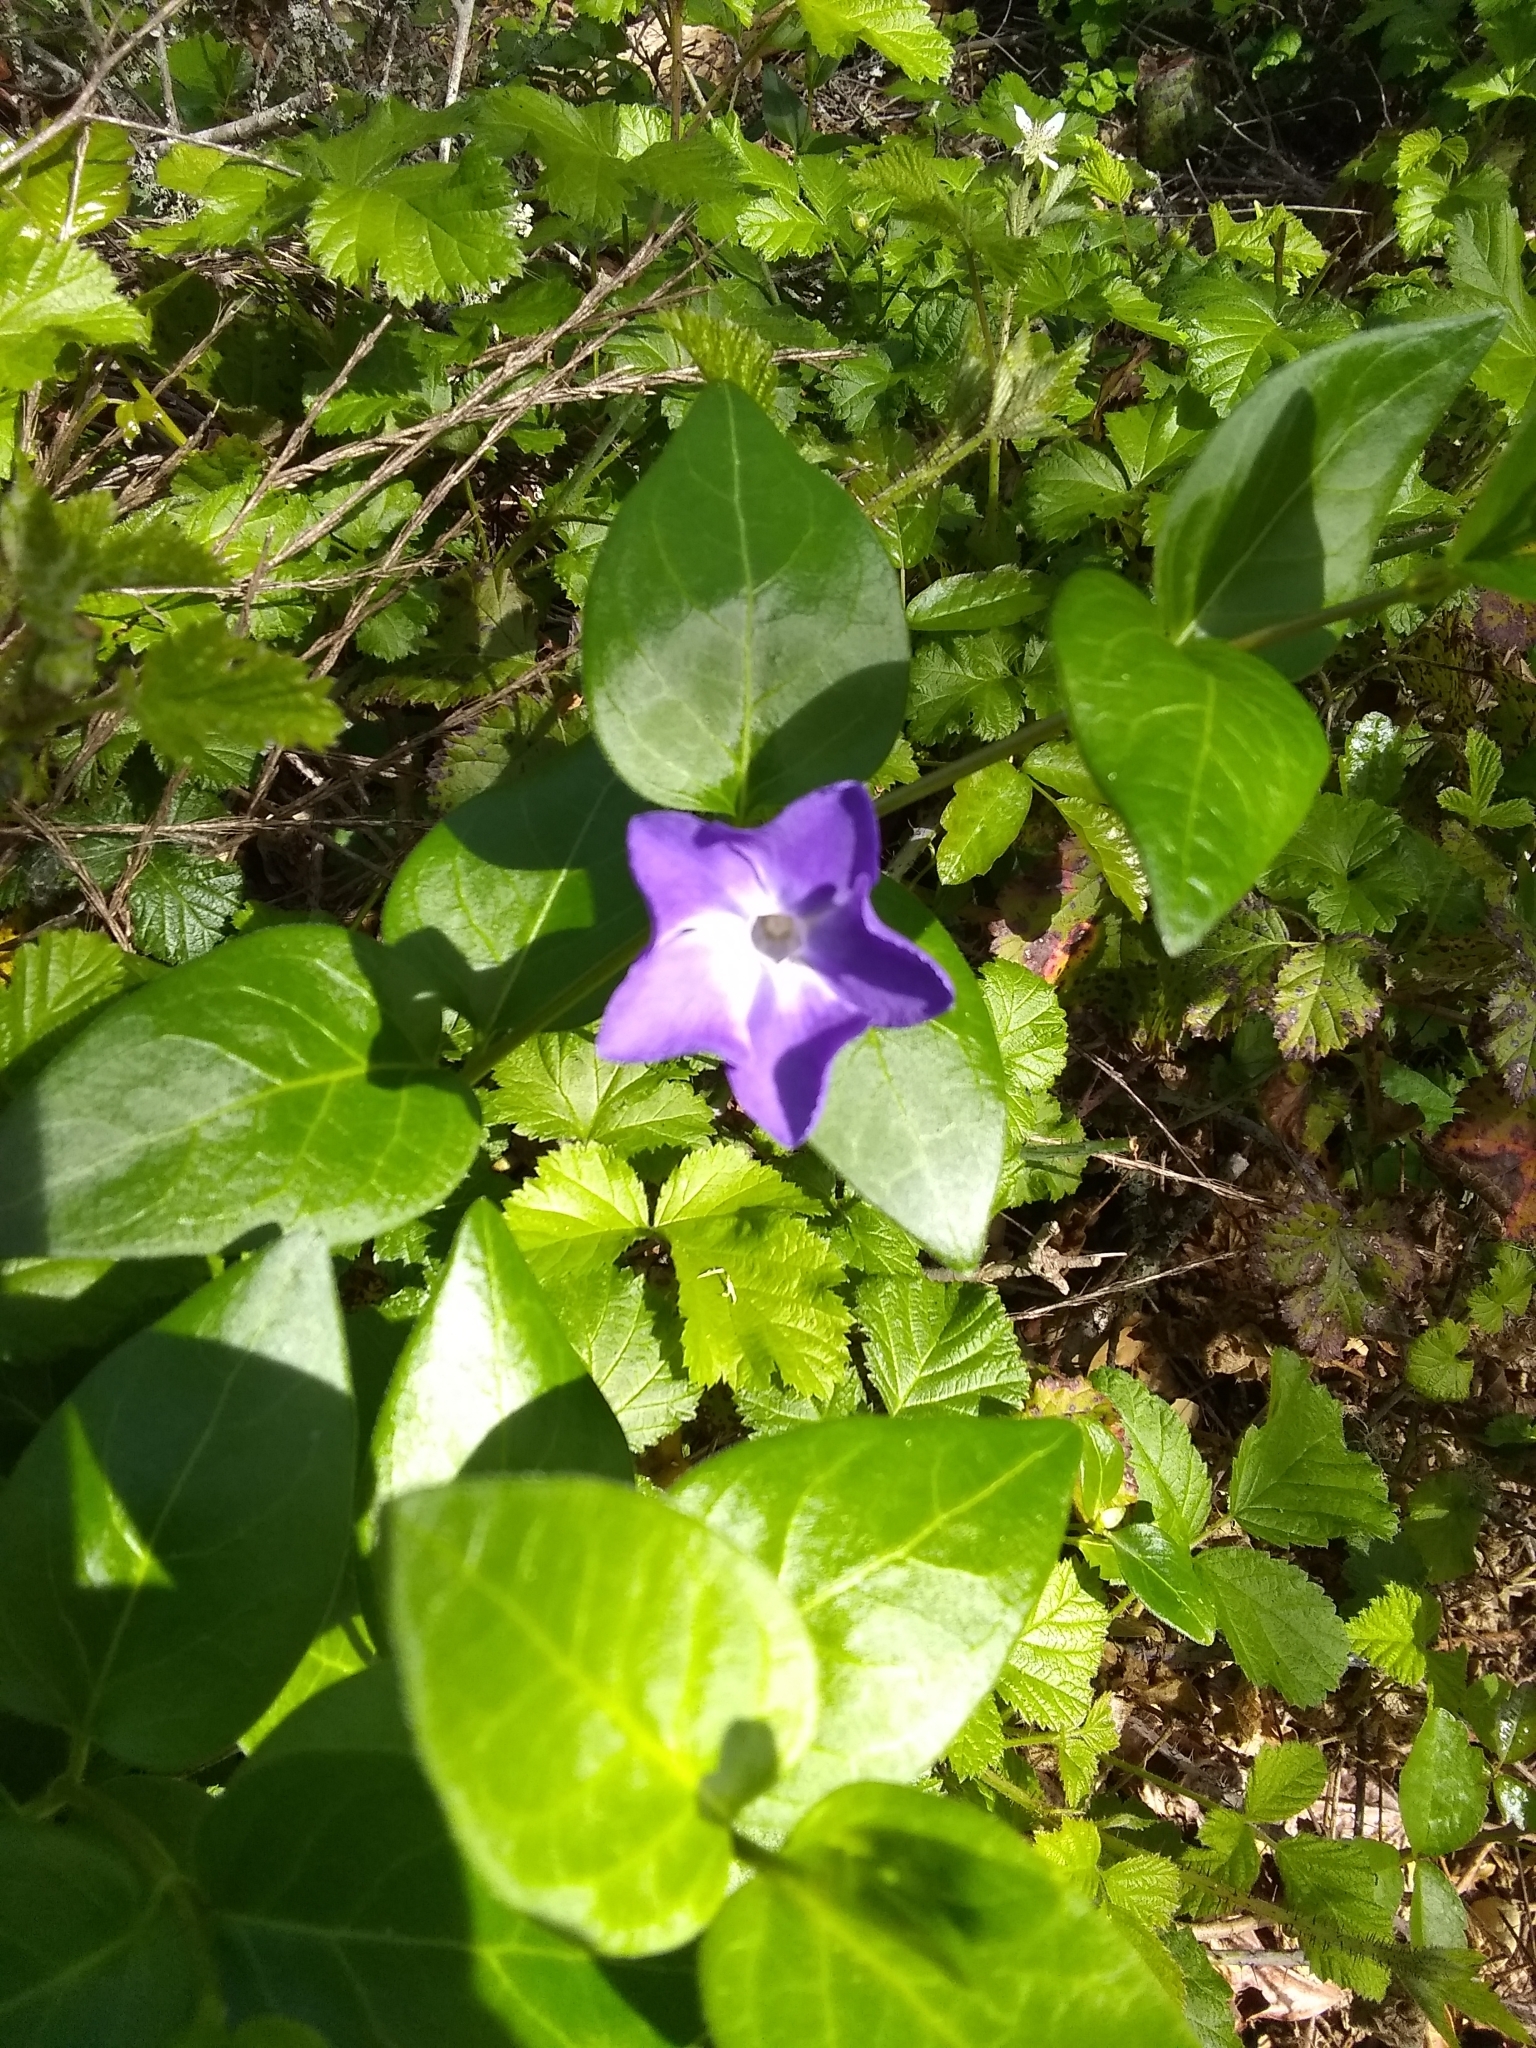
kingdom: Plantae
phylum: Tracheophyta
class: Magnoliopsida
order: Gentianales
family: Apocynaceae
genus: Vinca
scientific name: Vinca major
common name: Greater periwinkle
